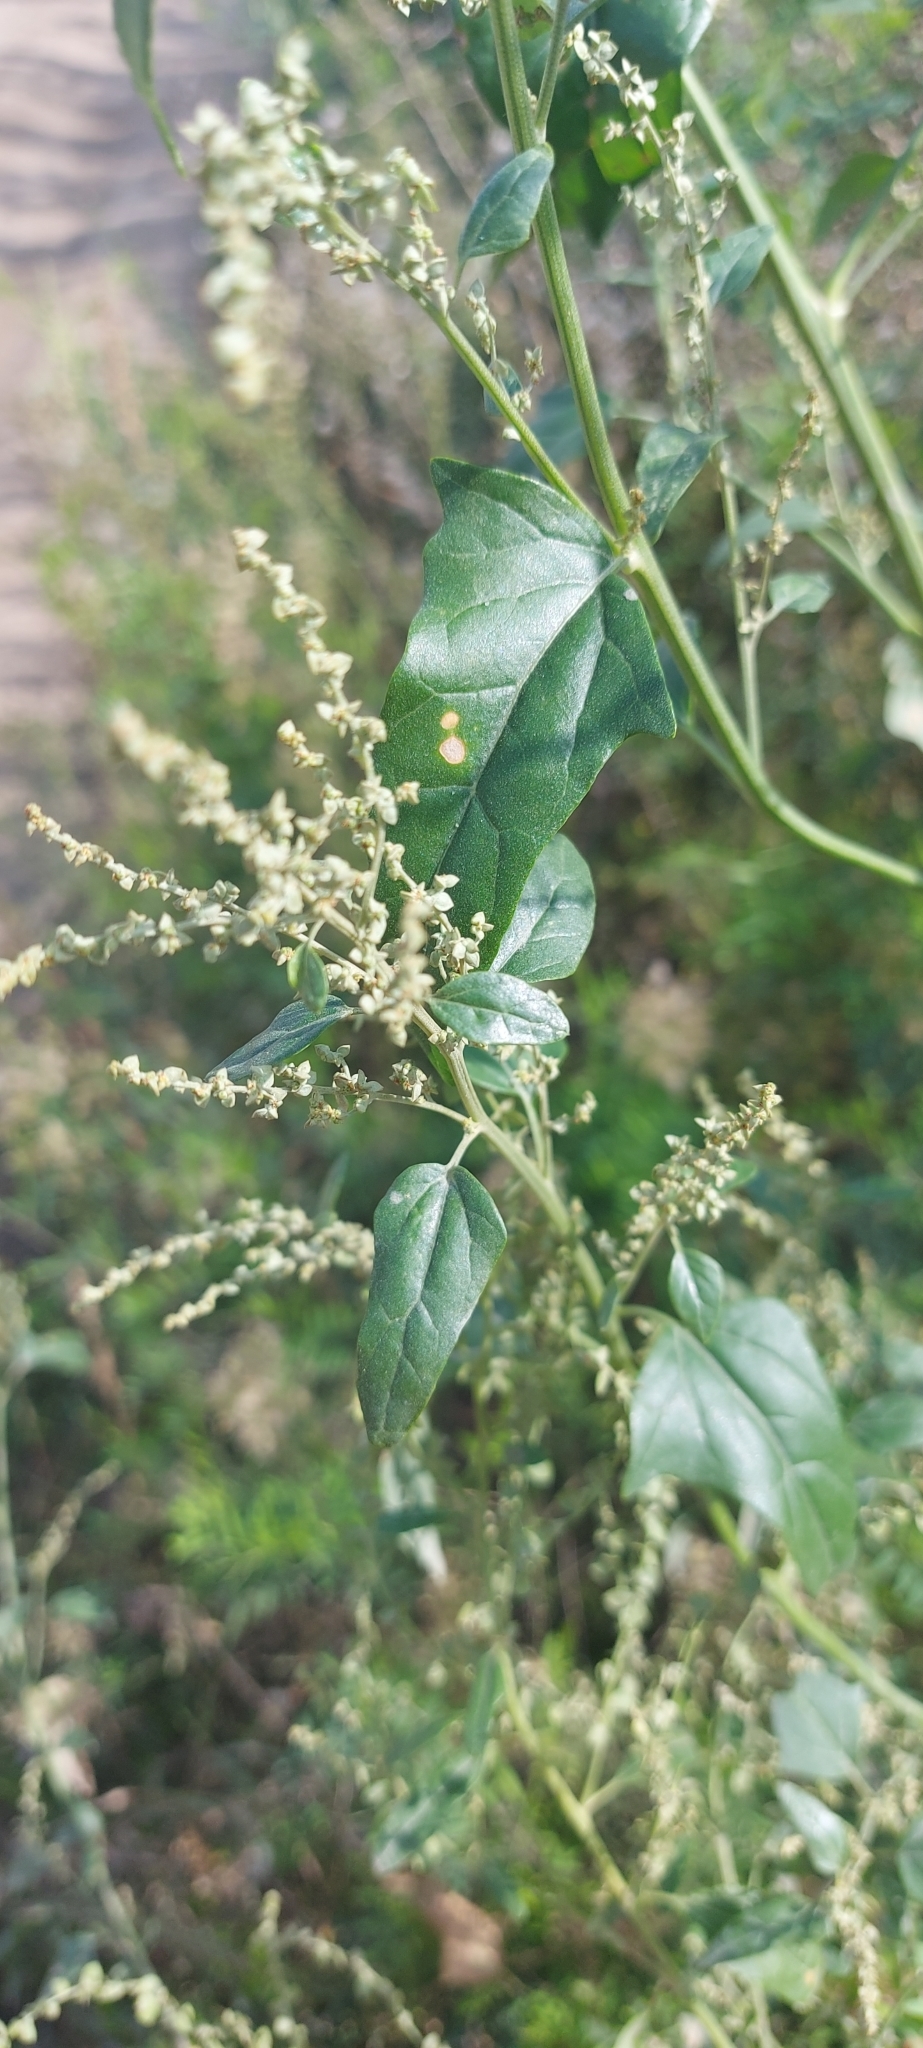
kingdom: Plantae
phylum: Tracheophyta
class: Magnoliopsida
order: Caryophyllales
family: Amaranthaceae
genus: Atriplex
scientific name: Atriplex sagittata
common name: Purple orache
